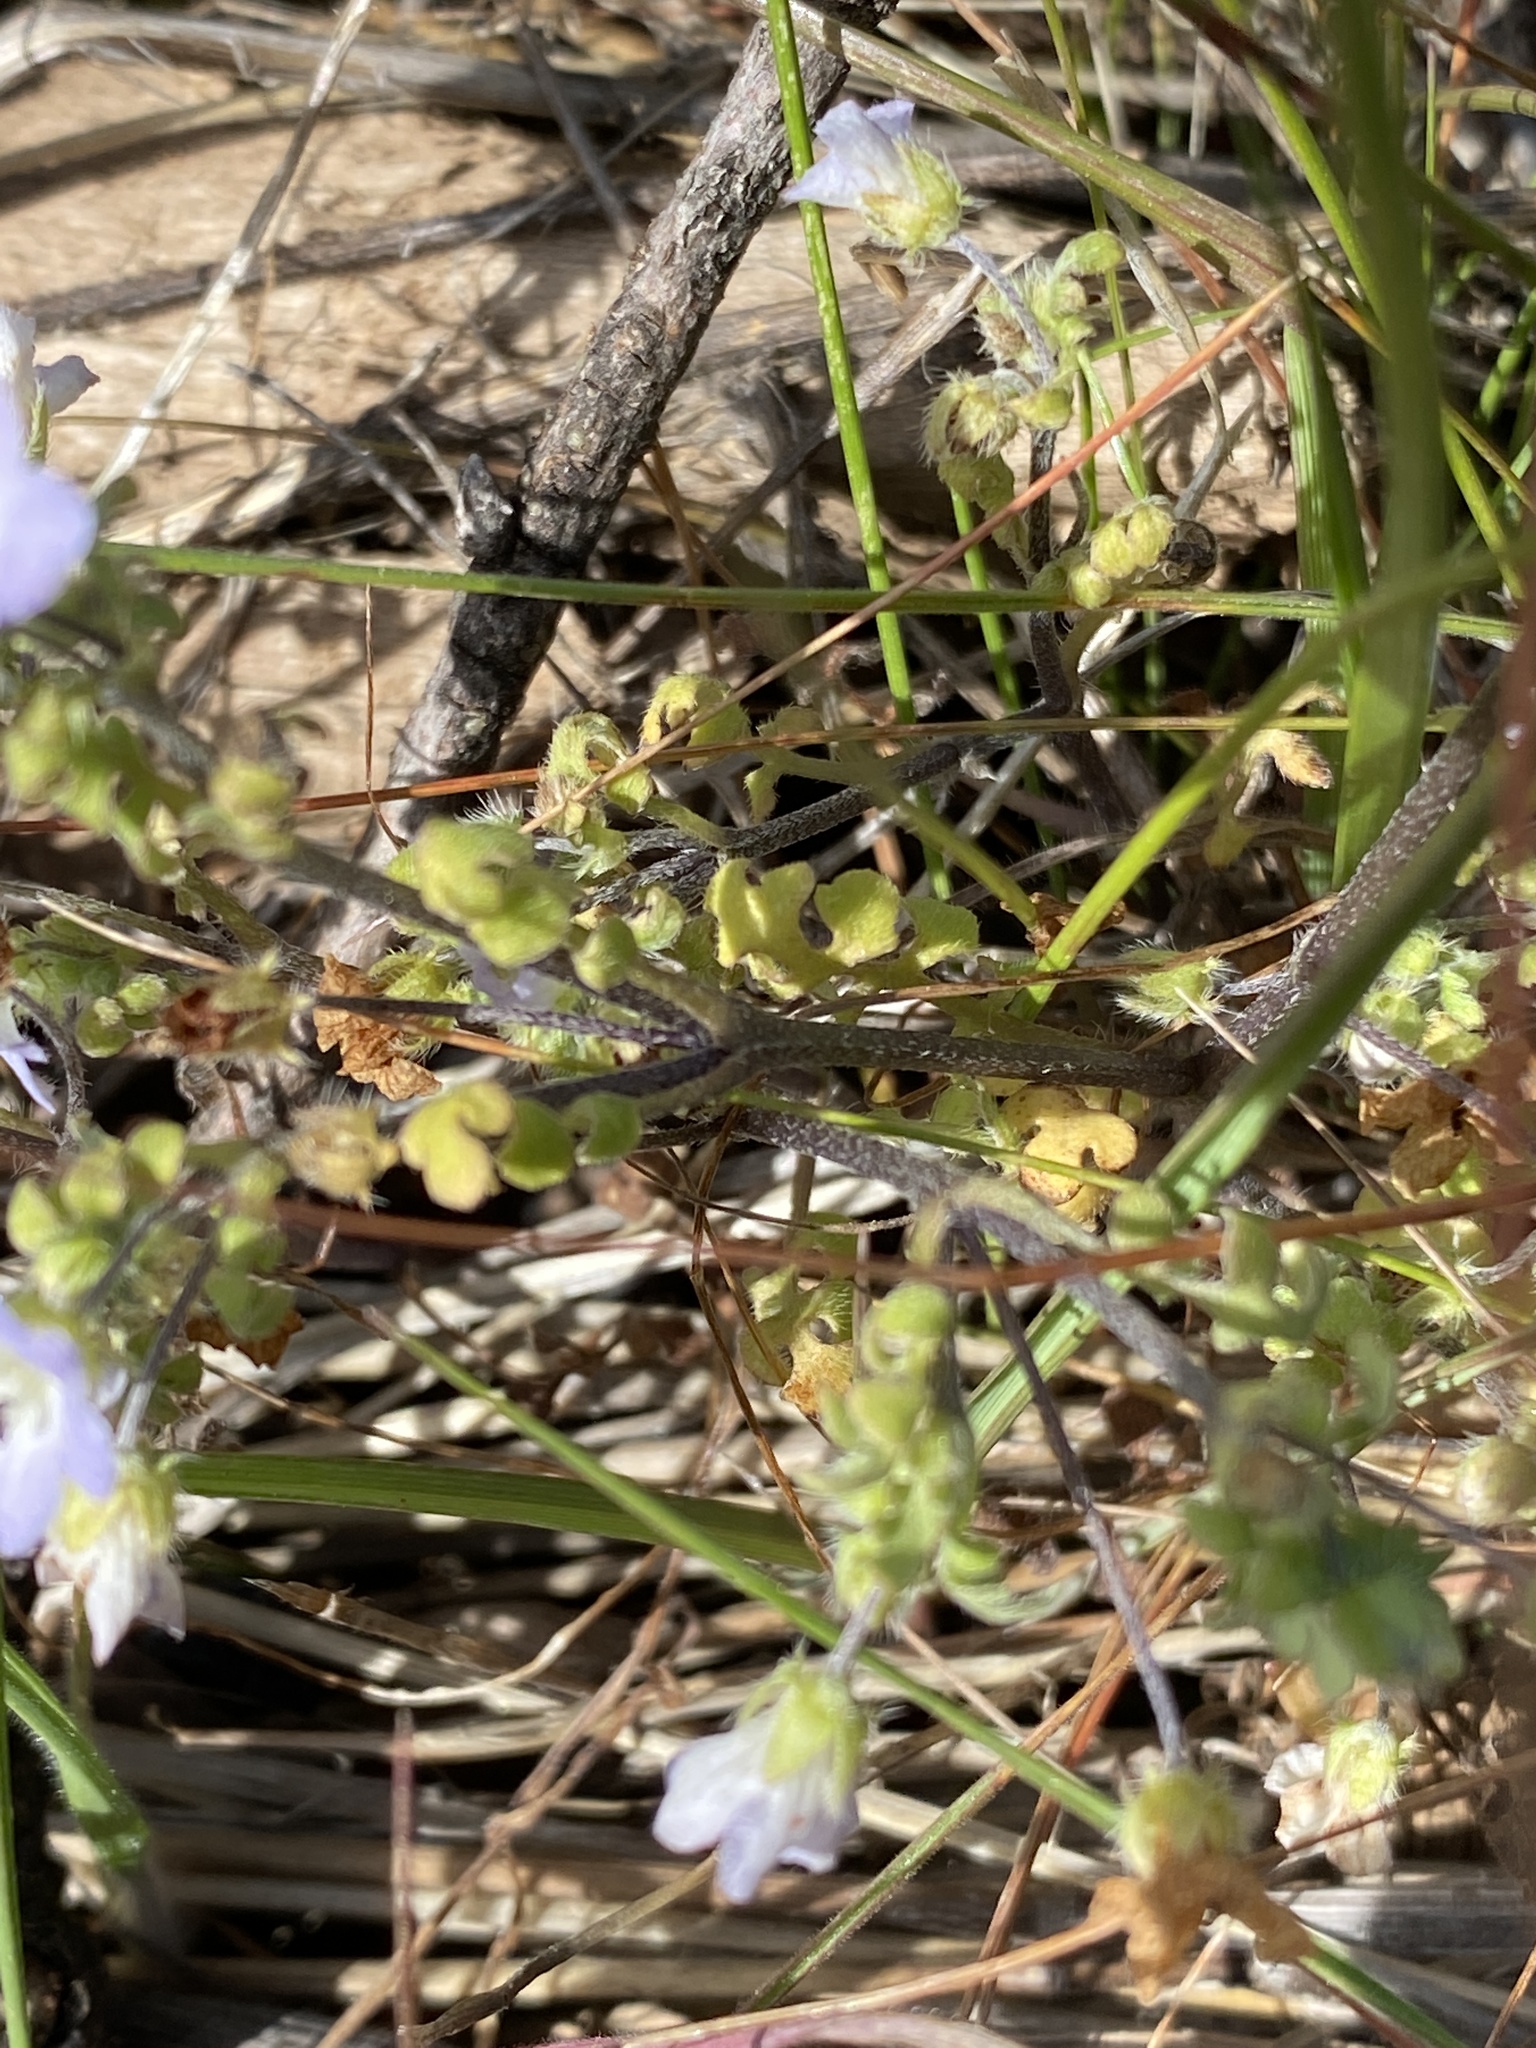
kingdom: Plantae
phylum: Tracheophyta
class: Magnoliopsida
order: Boraginales
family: Hydrophyllaceae
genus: Nemophila
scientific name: Nemophila menziesii
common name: Baby's-blue-eyes
